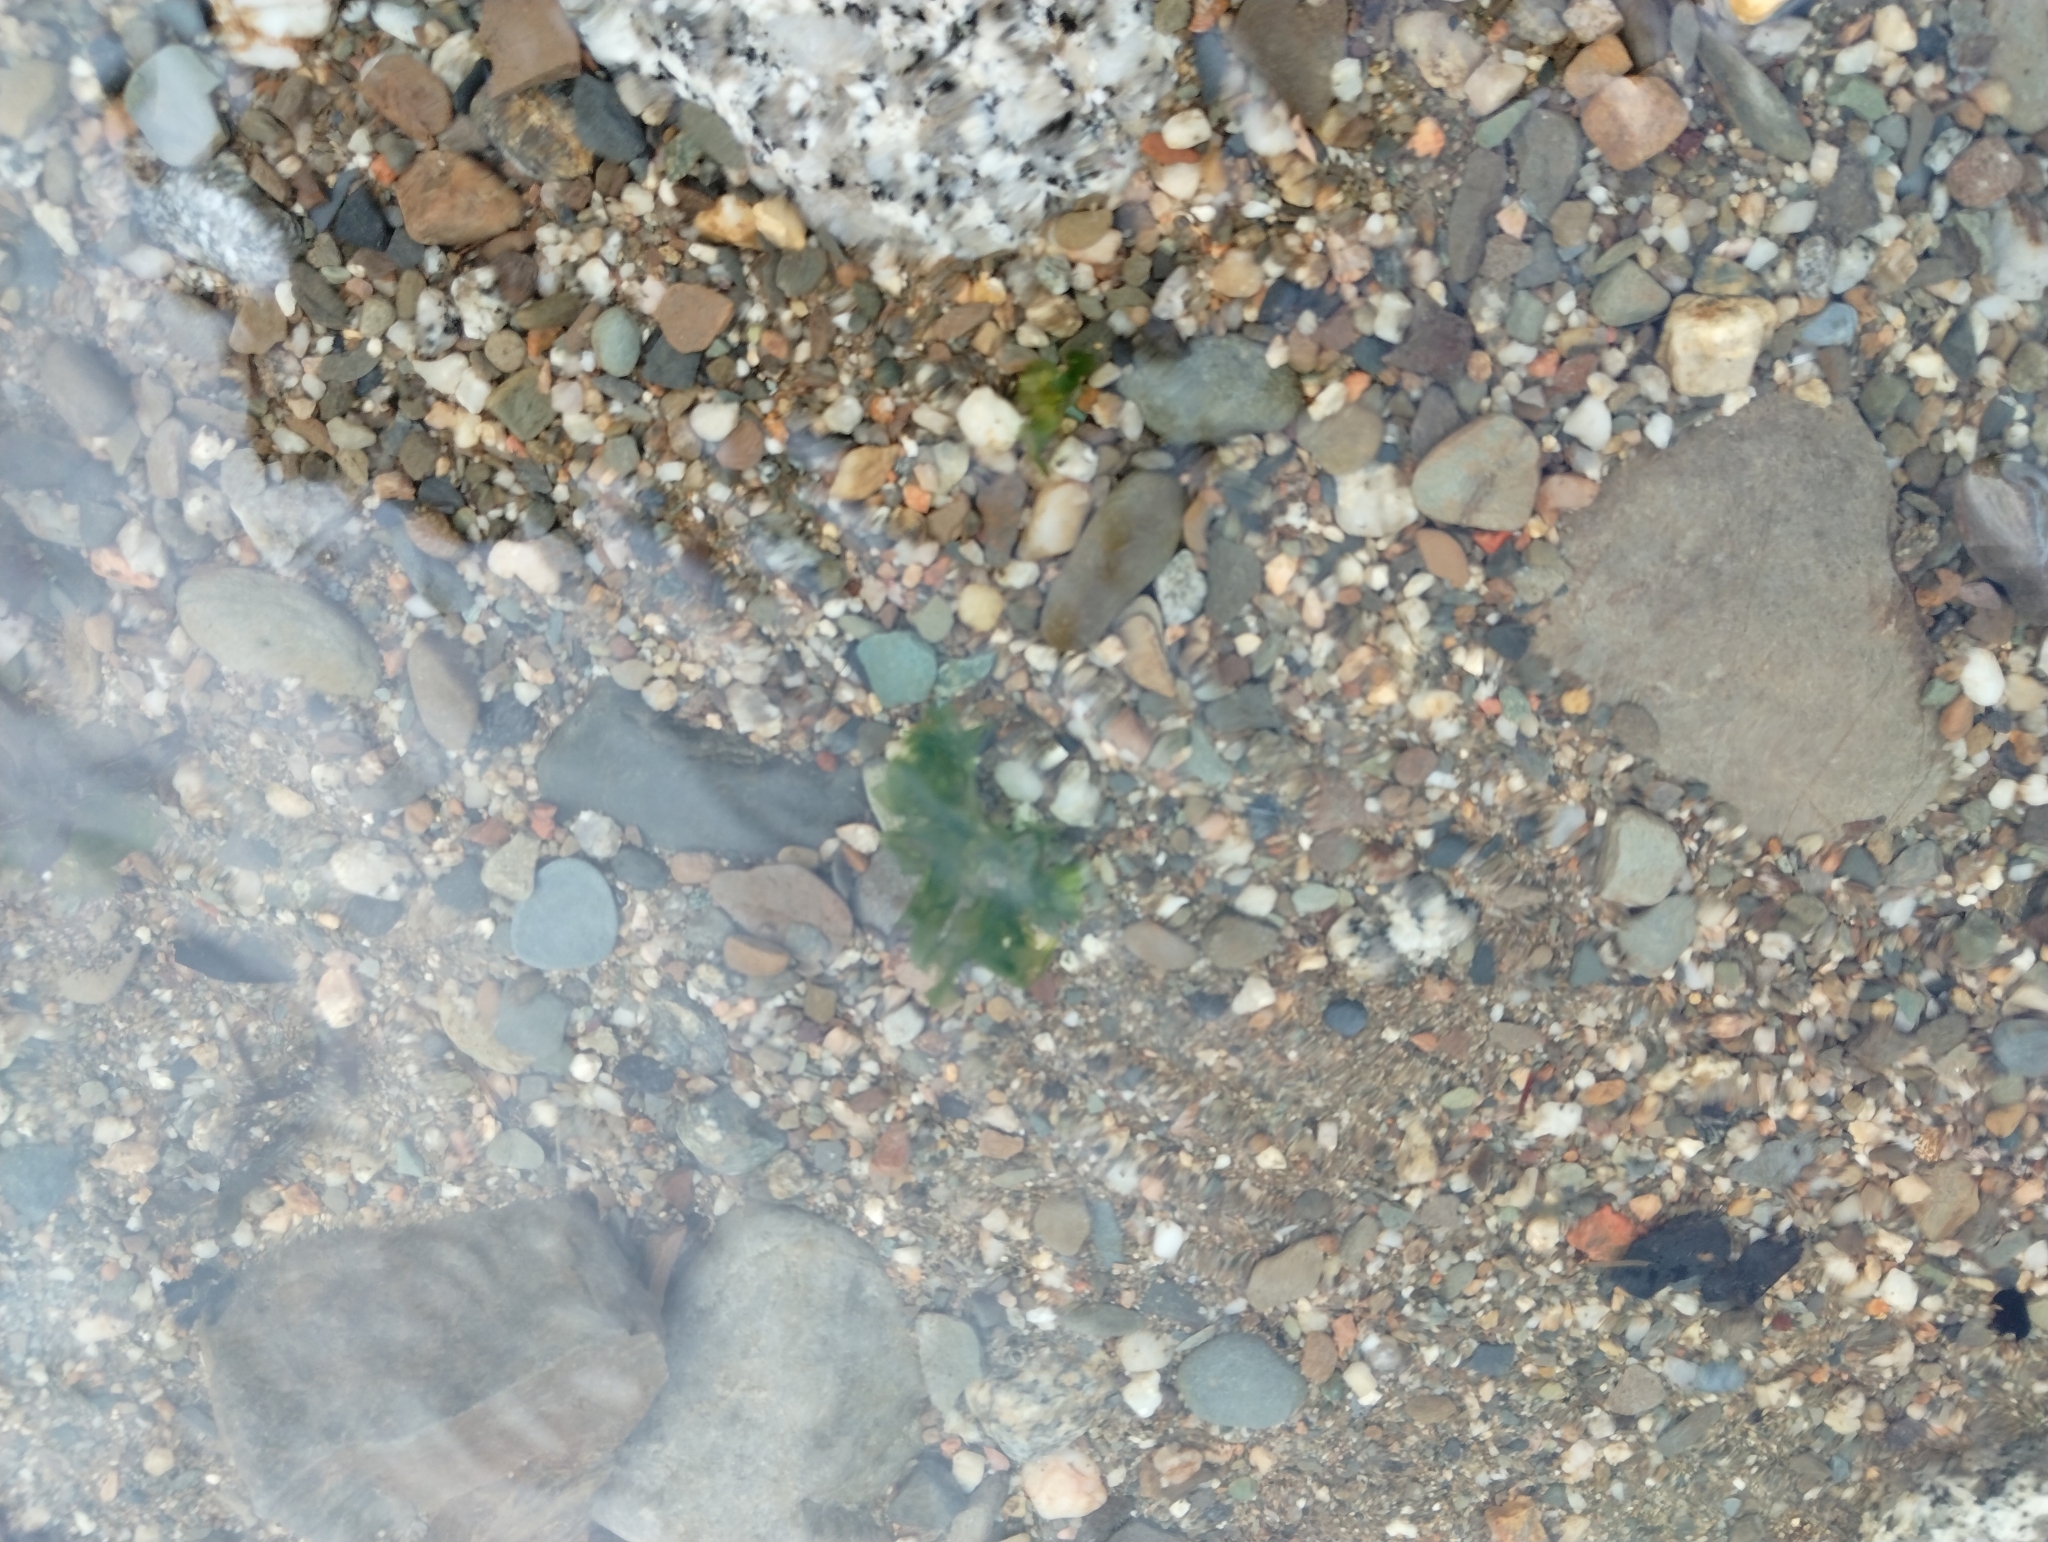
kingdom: Plantae
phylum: Chlorophyta
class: Ulvophyceae
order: Ulvales
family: Ulvaceae
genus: Ulva
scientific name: Ulva lactuca
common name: Sea lettuce
